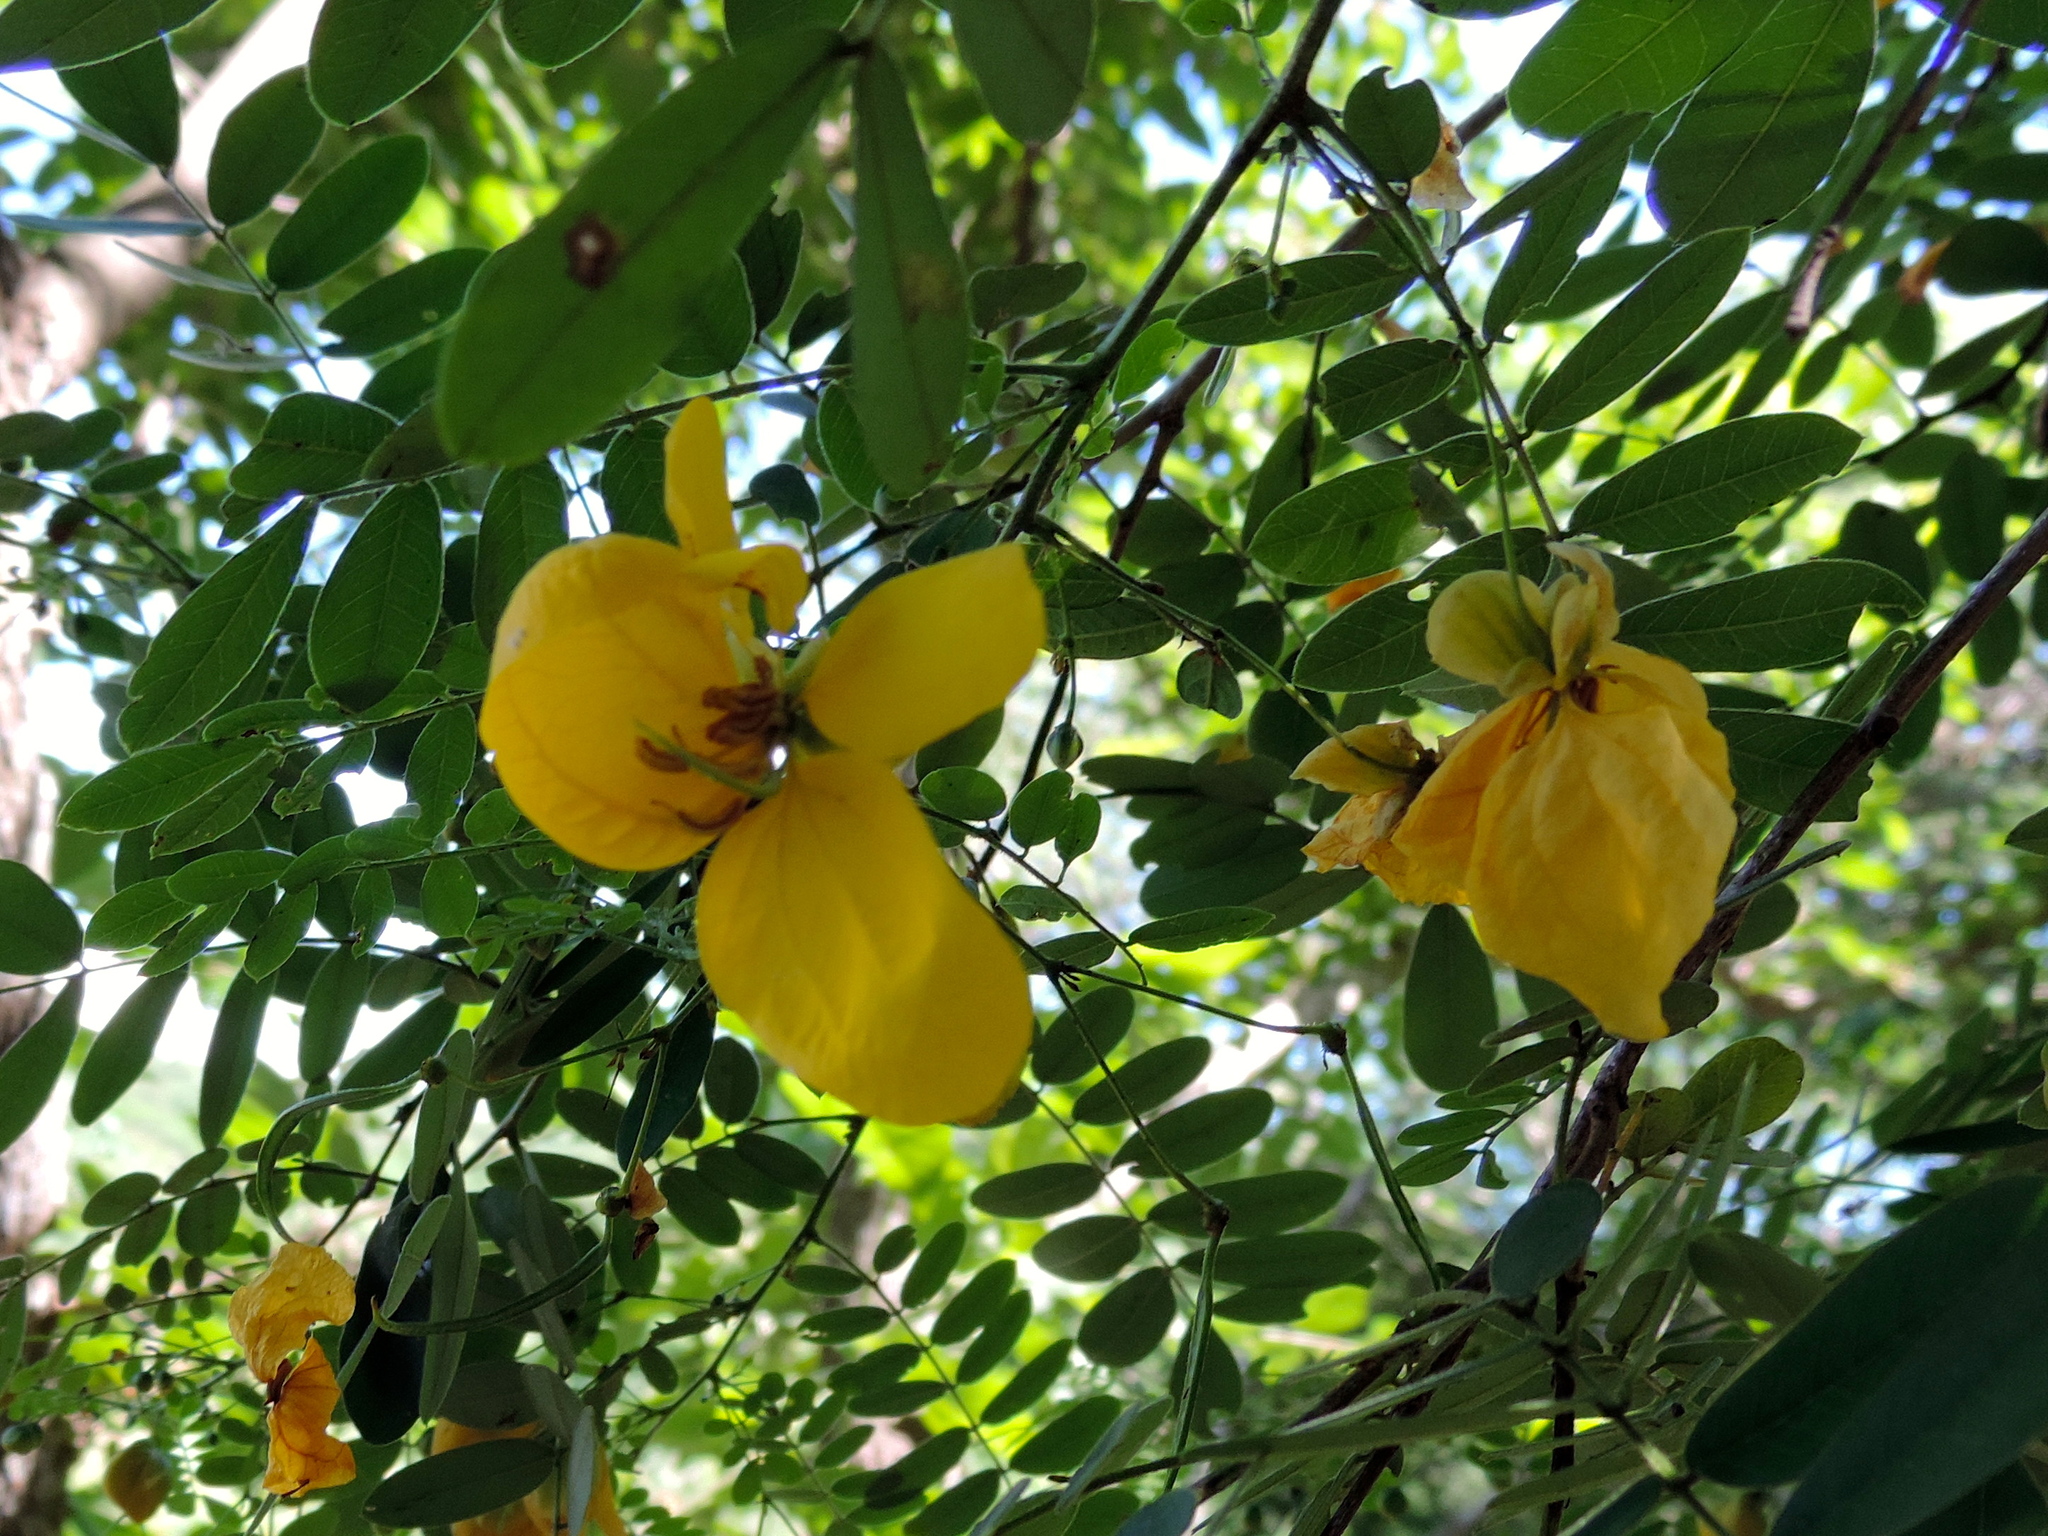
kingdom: Plantae
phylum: Tracheophyta
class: Magnoliopsida
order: Fabales
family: Fabaceae
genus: Senna
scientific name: Senna pallida
